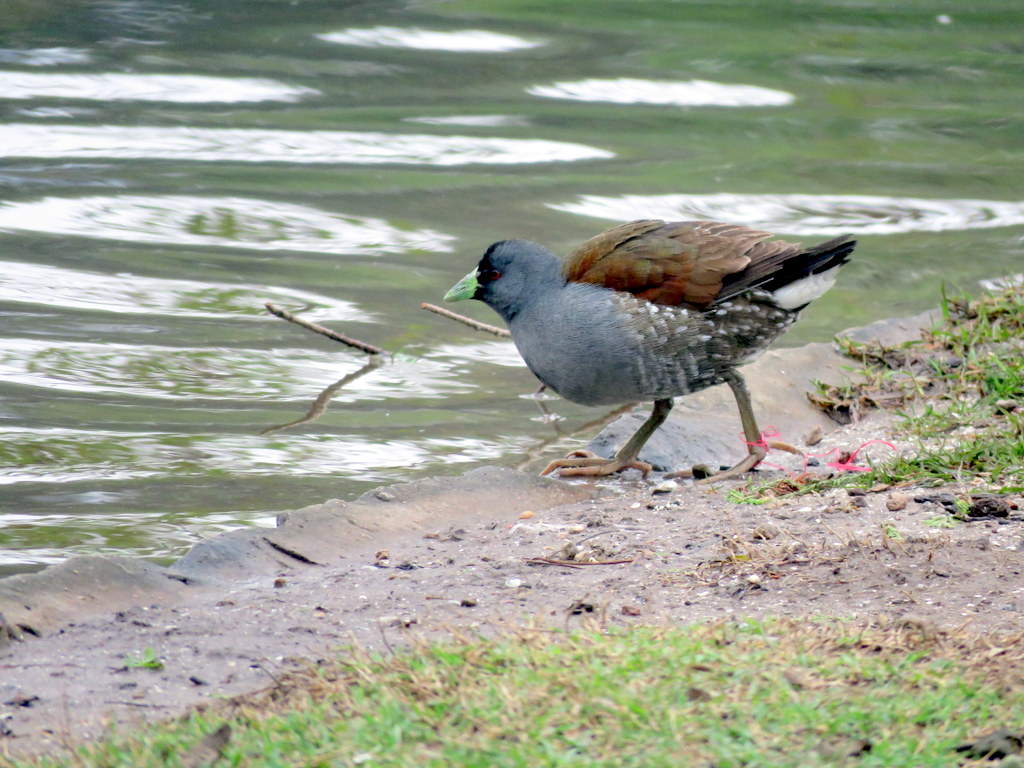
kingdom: Animalia
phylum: Chordata
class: Aves
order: Gruiformes
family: Rallidae
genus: Gallinula
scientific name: Gallinula melanops
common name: Spot-flanked gallinule
